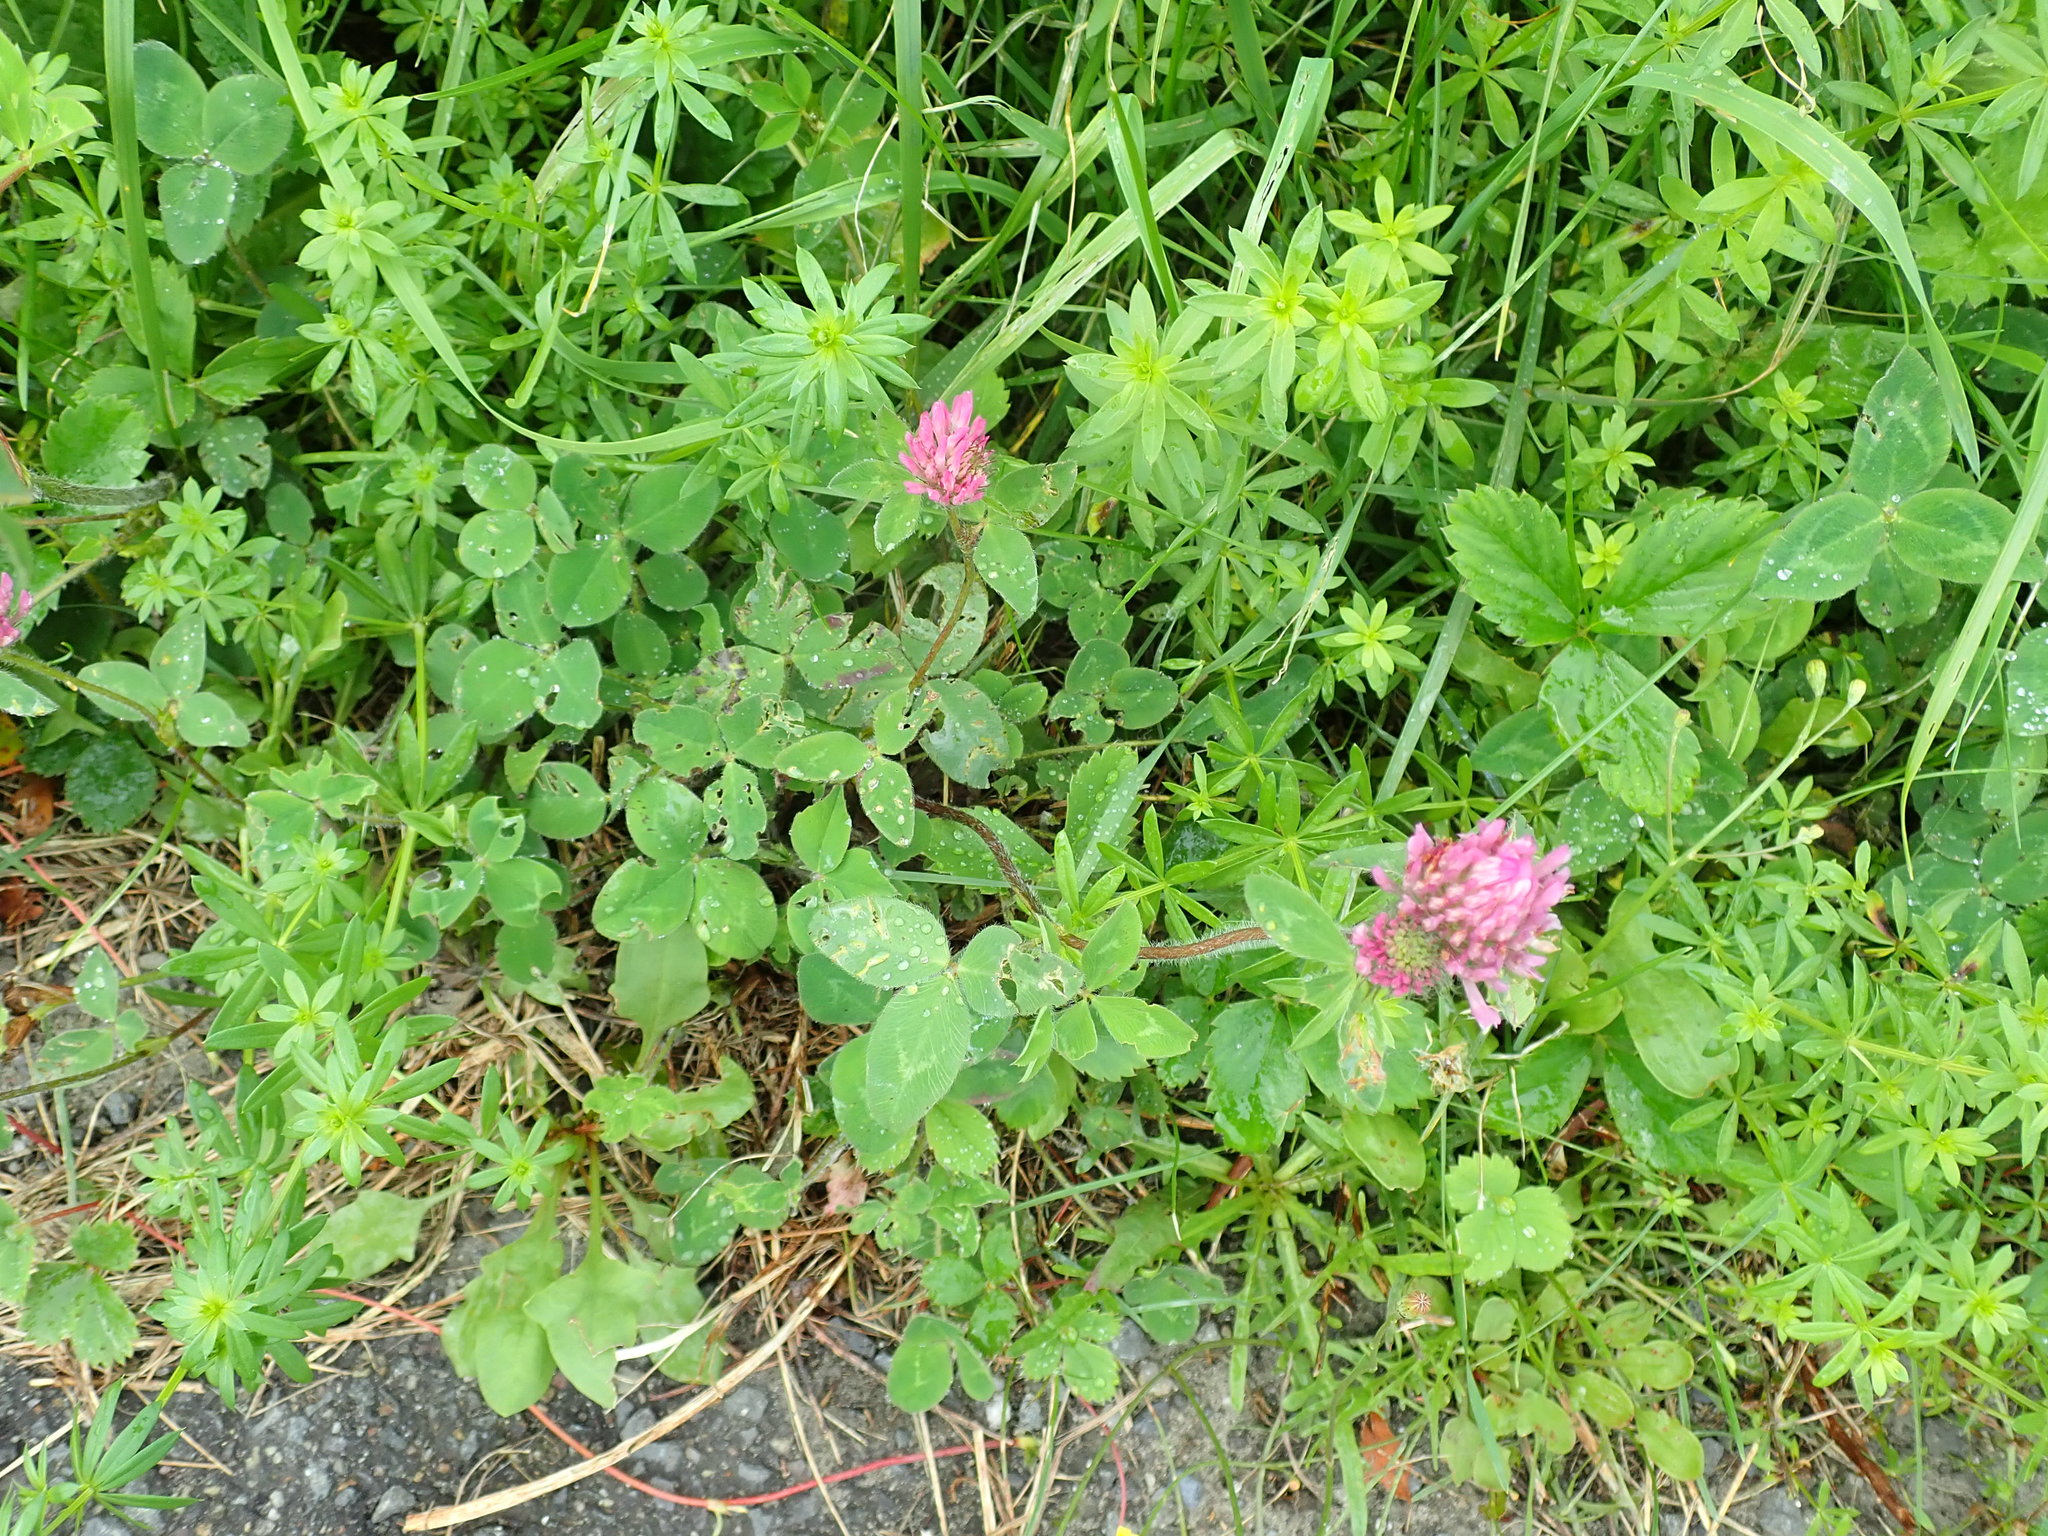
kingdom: Plantae
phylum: Tracheophyta
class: Magnoliopsida
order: Fabales
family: Fabaceae
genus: Trifolium
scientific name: Trifolium pratense
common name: Red clover
